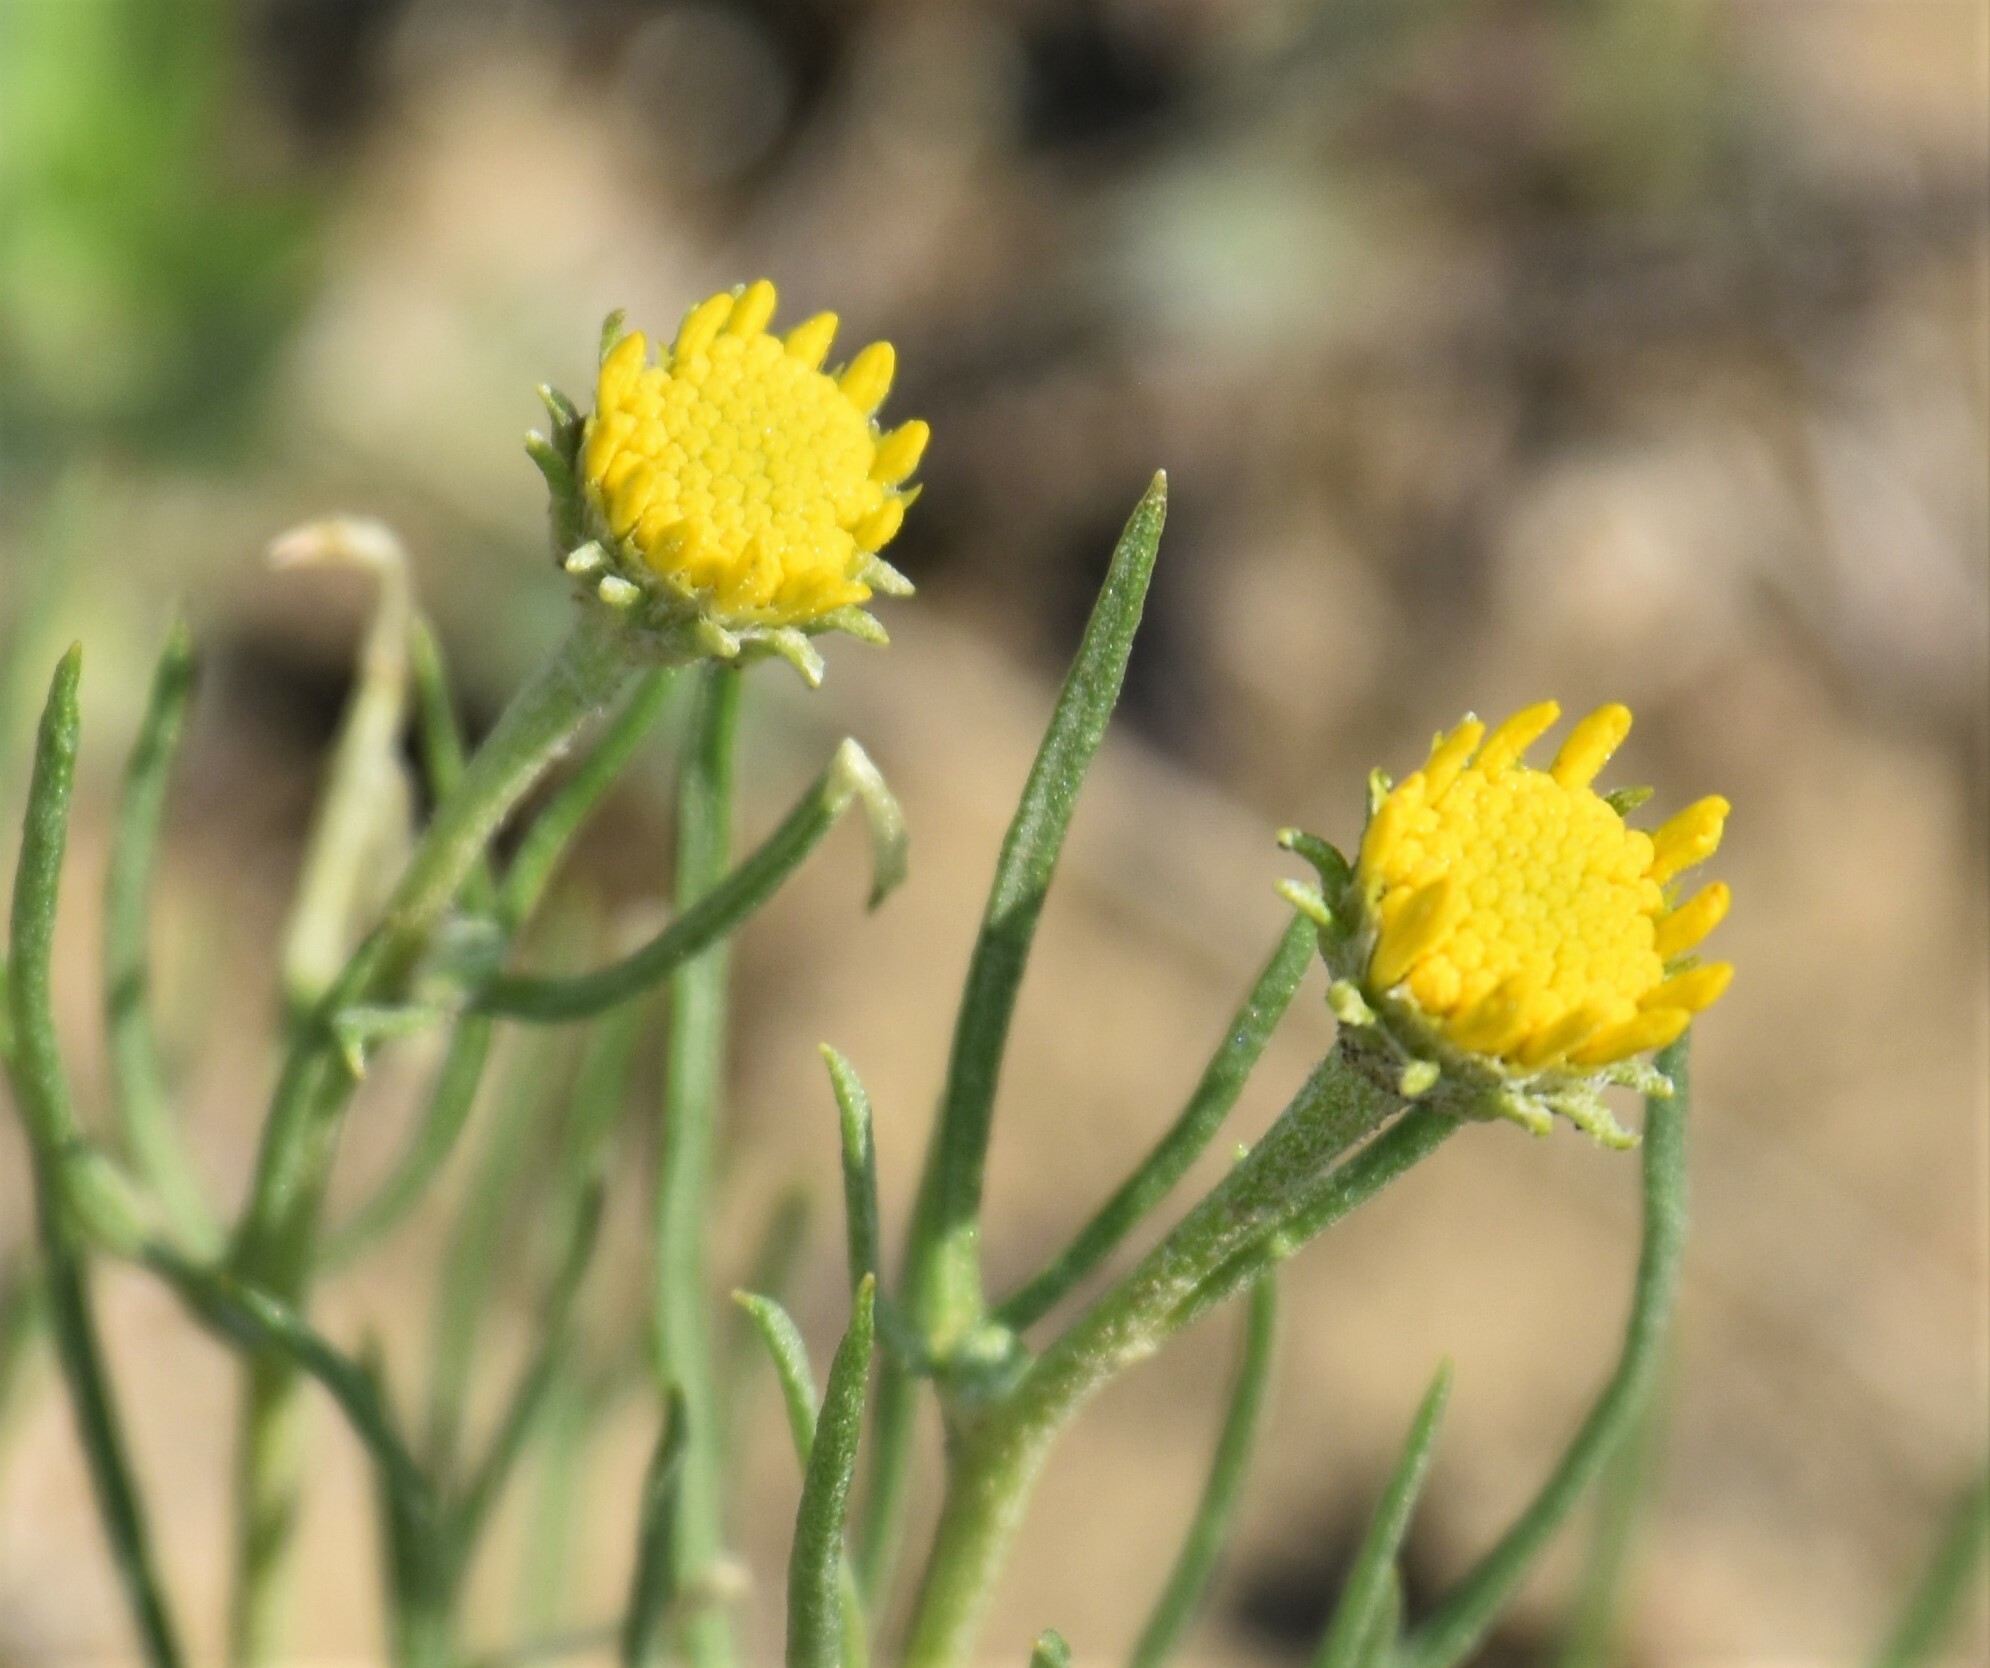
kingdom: Plantae
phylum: Tracheophyta
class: Magnoliopsida
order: Asterales
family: Asteraceae
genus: Hymenoxys
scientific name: Hymenoxys richardsonii
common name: Pingue rubberweed
